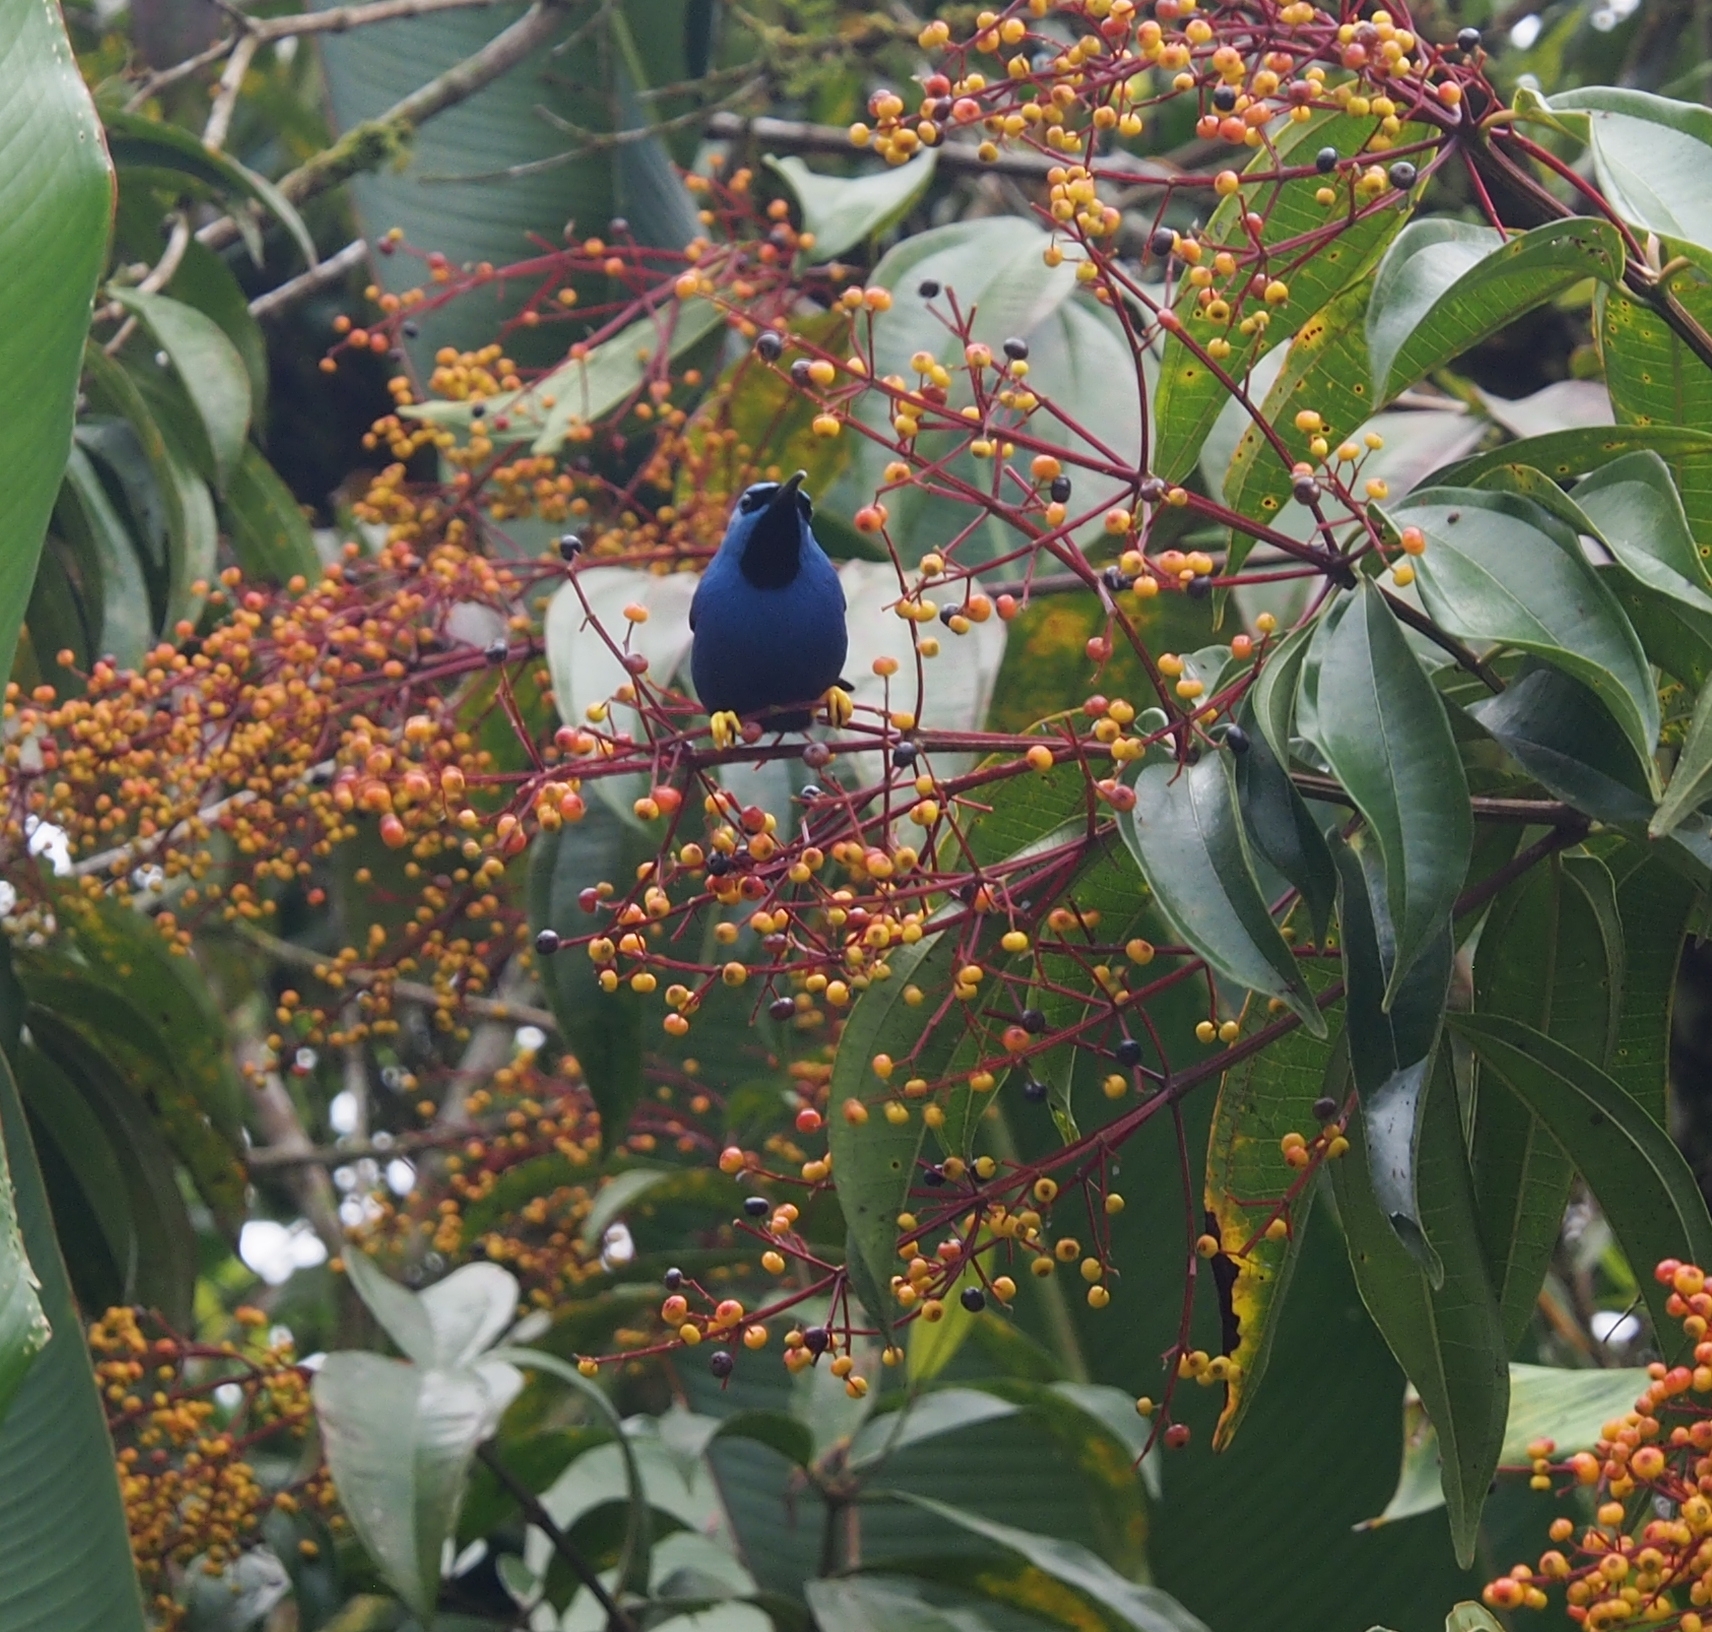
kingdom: Animalia
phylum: Chordata
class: Aves
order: Passeriformes
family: Thraupidae
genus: Cyanerpes
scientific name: Cyanerpes lucidus
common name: Shining honeycreeper
